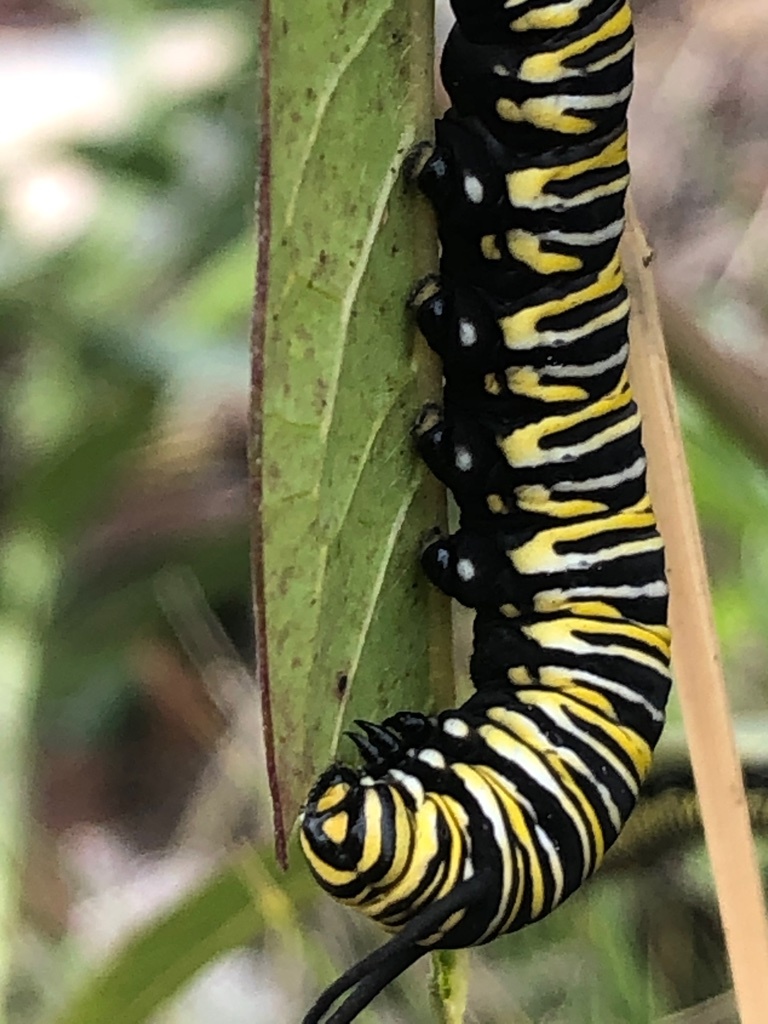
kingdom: Animalia
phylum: Arthropoda
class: Insecta
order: Lepidoptera
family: Nymphalidae
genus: Danaus
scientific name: Danaus plexippus
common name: Monarch
